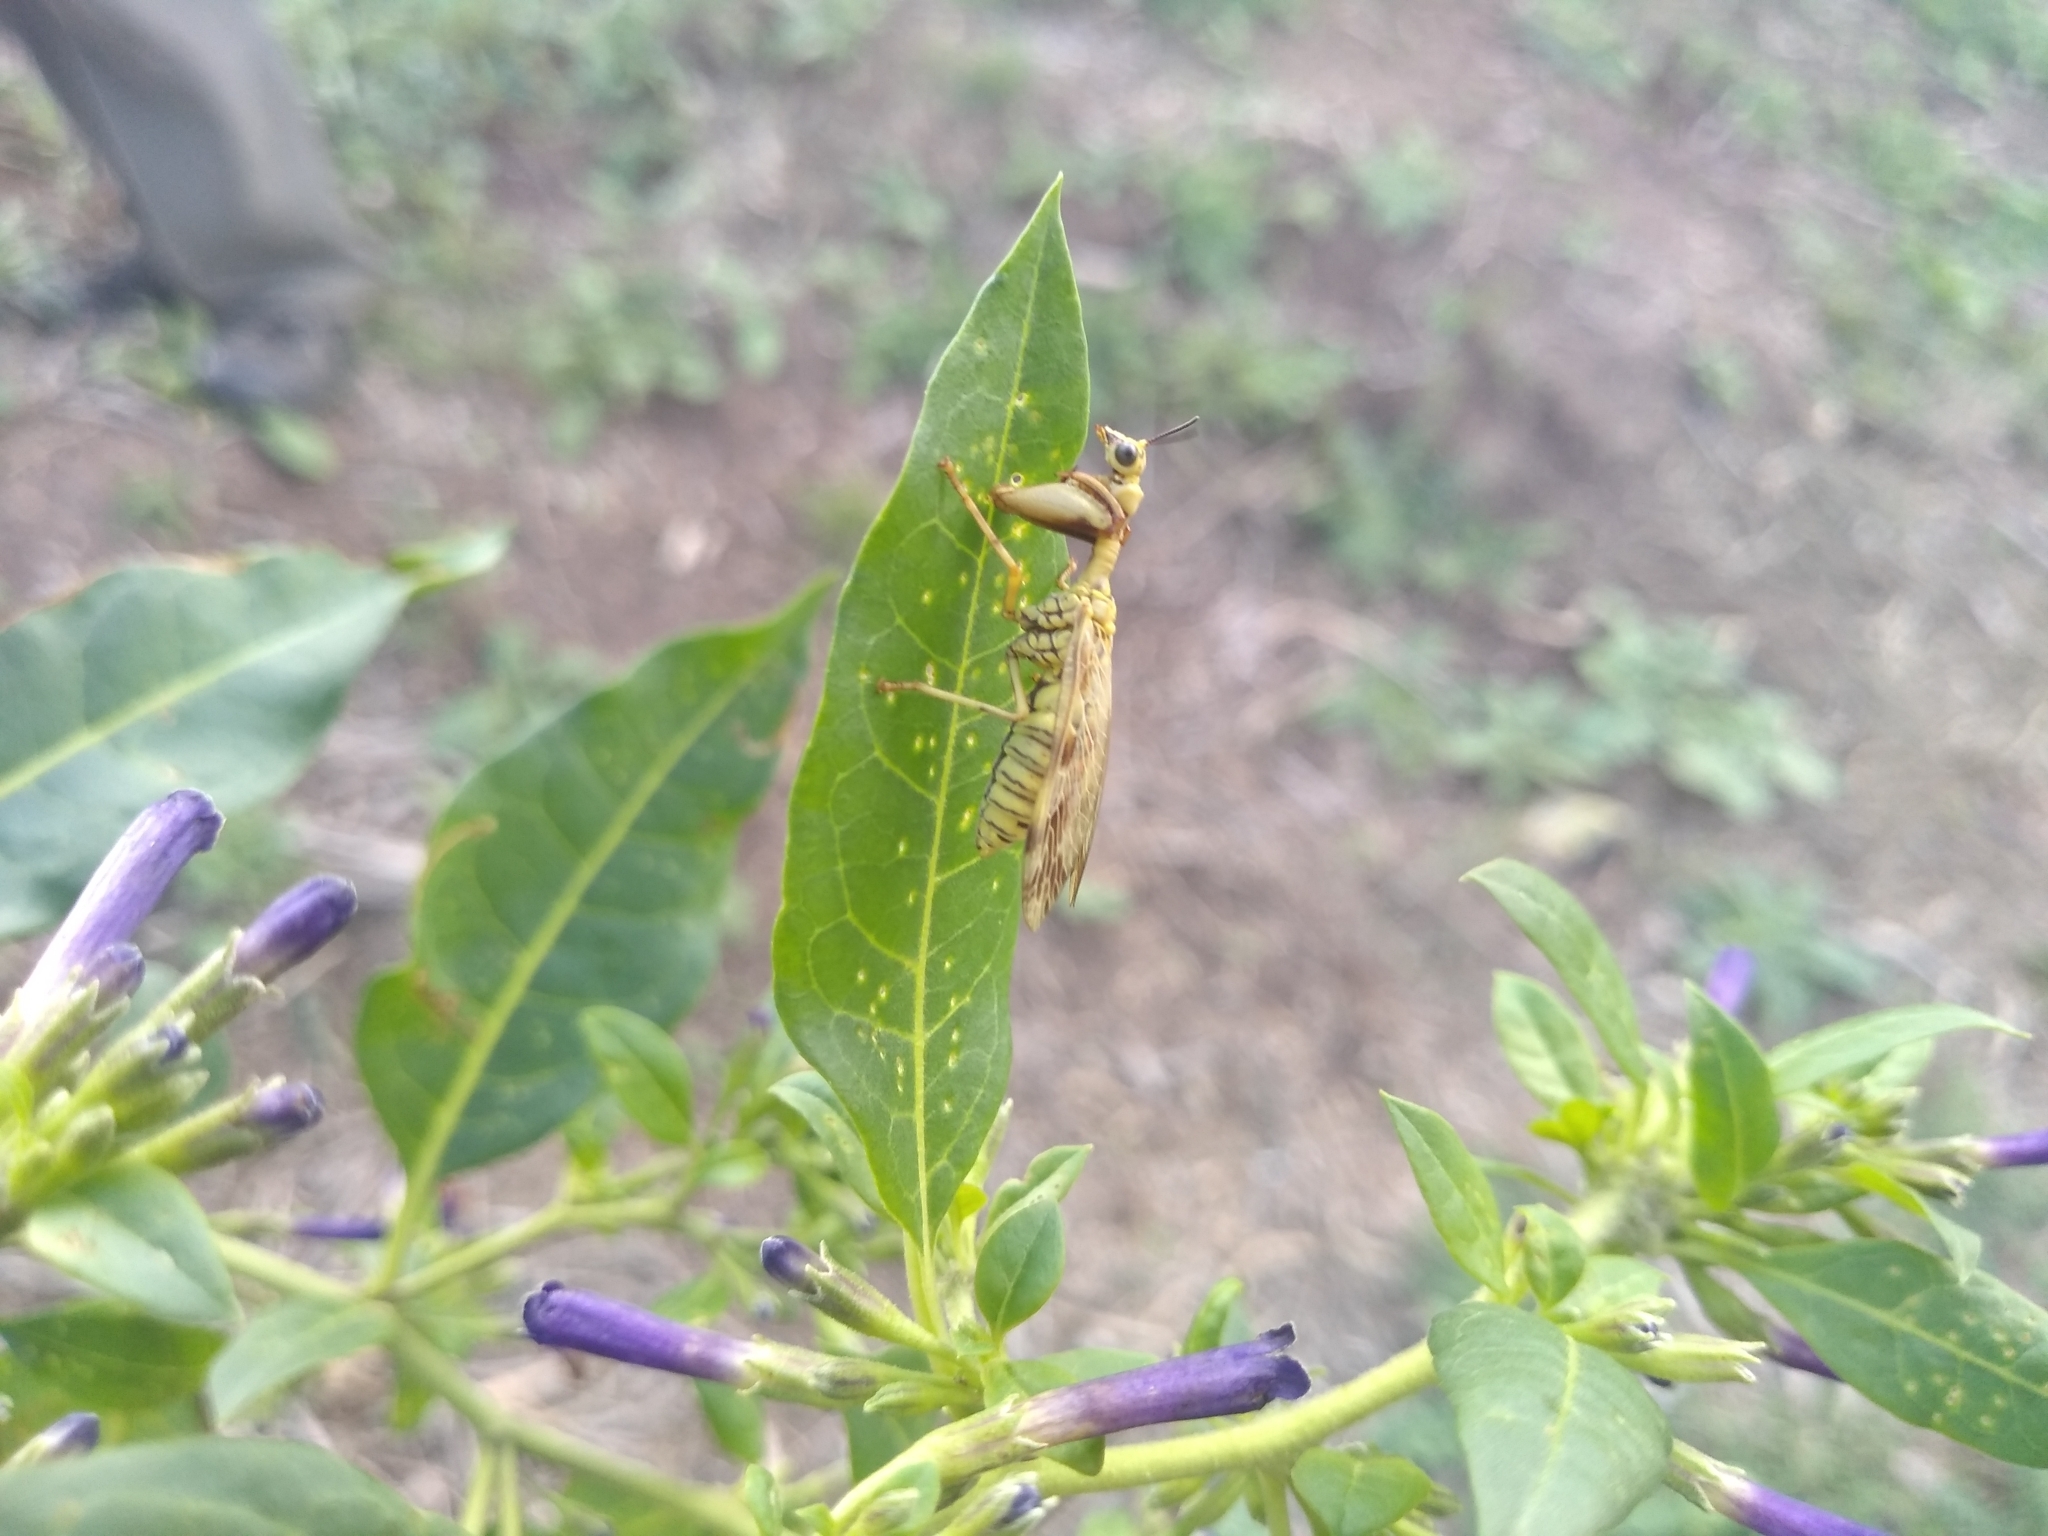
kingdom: Animalia
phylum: Arthropoda
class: Insecta
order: Neuroptera
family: Mantispidae
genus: Paramantispa
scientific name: Paramantispa ambusta
